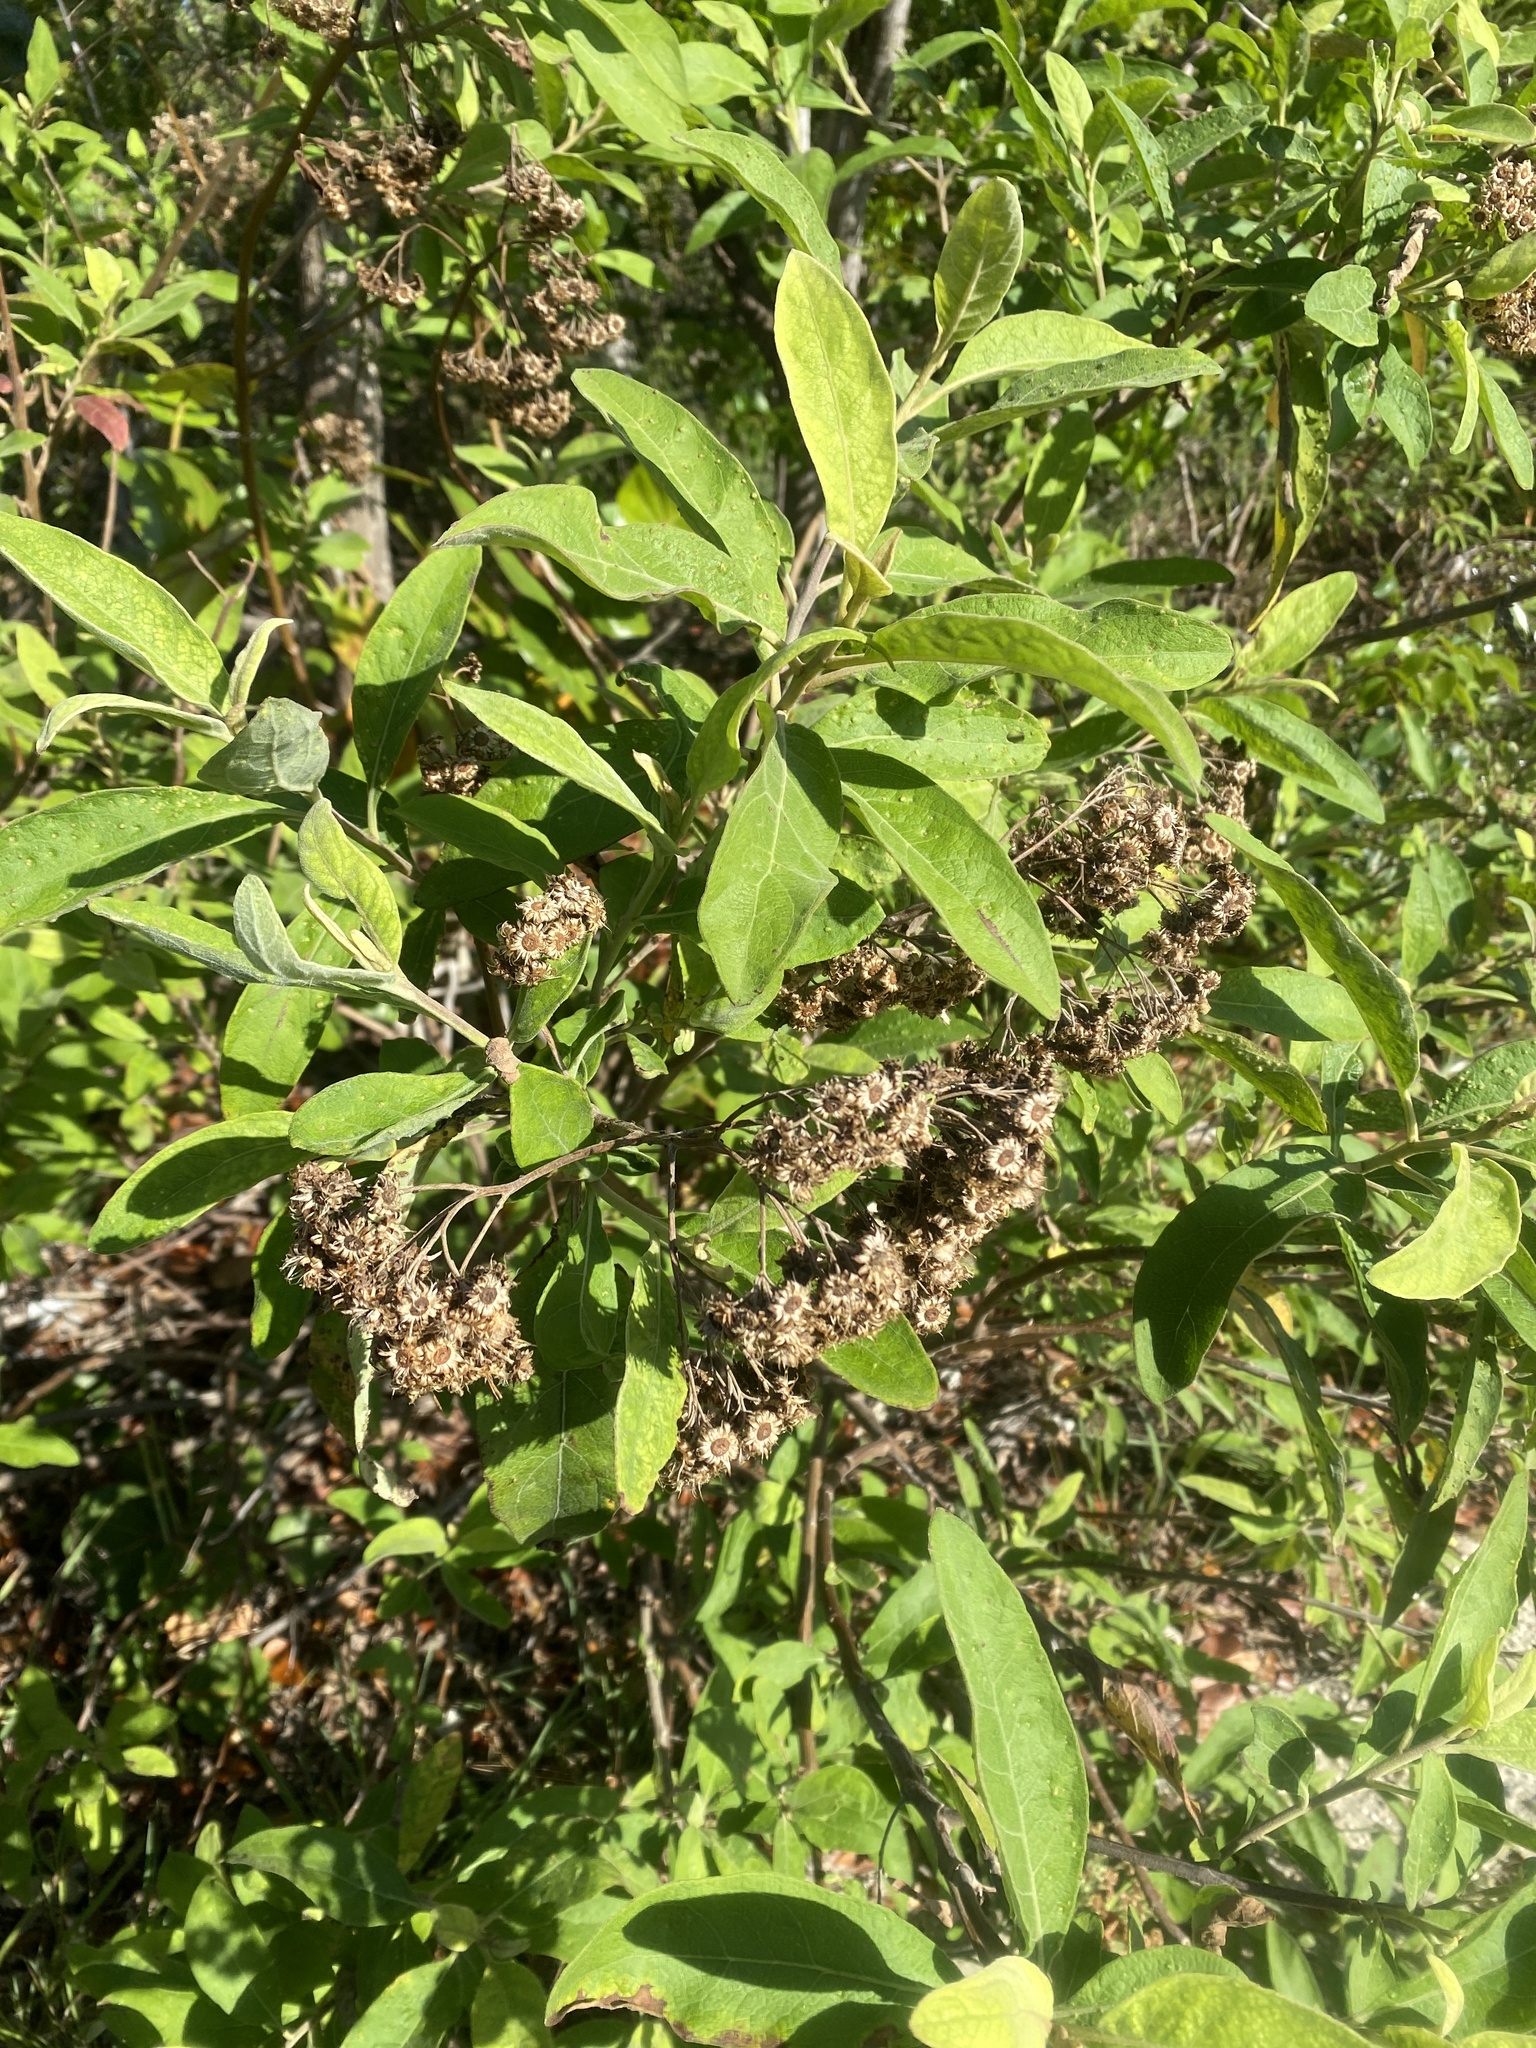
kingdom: Plantae
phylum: Tracheophyta
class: Magnoliopsida
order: Asterales
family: Asteraceae
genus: Pluchea
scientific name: Pluchea carolinensis
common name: Marsh fleabane
